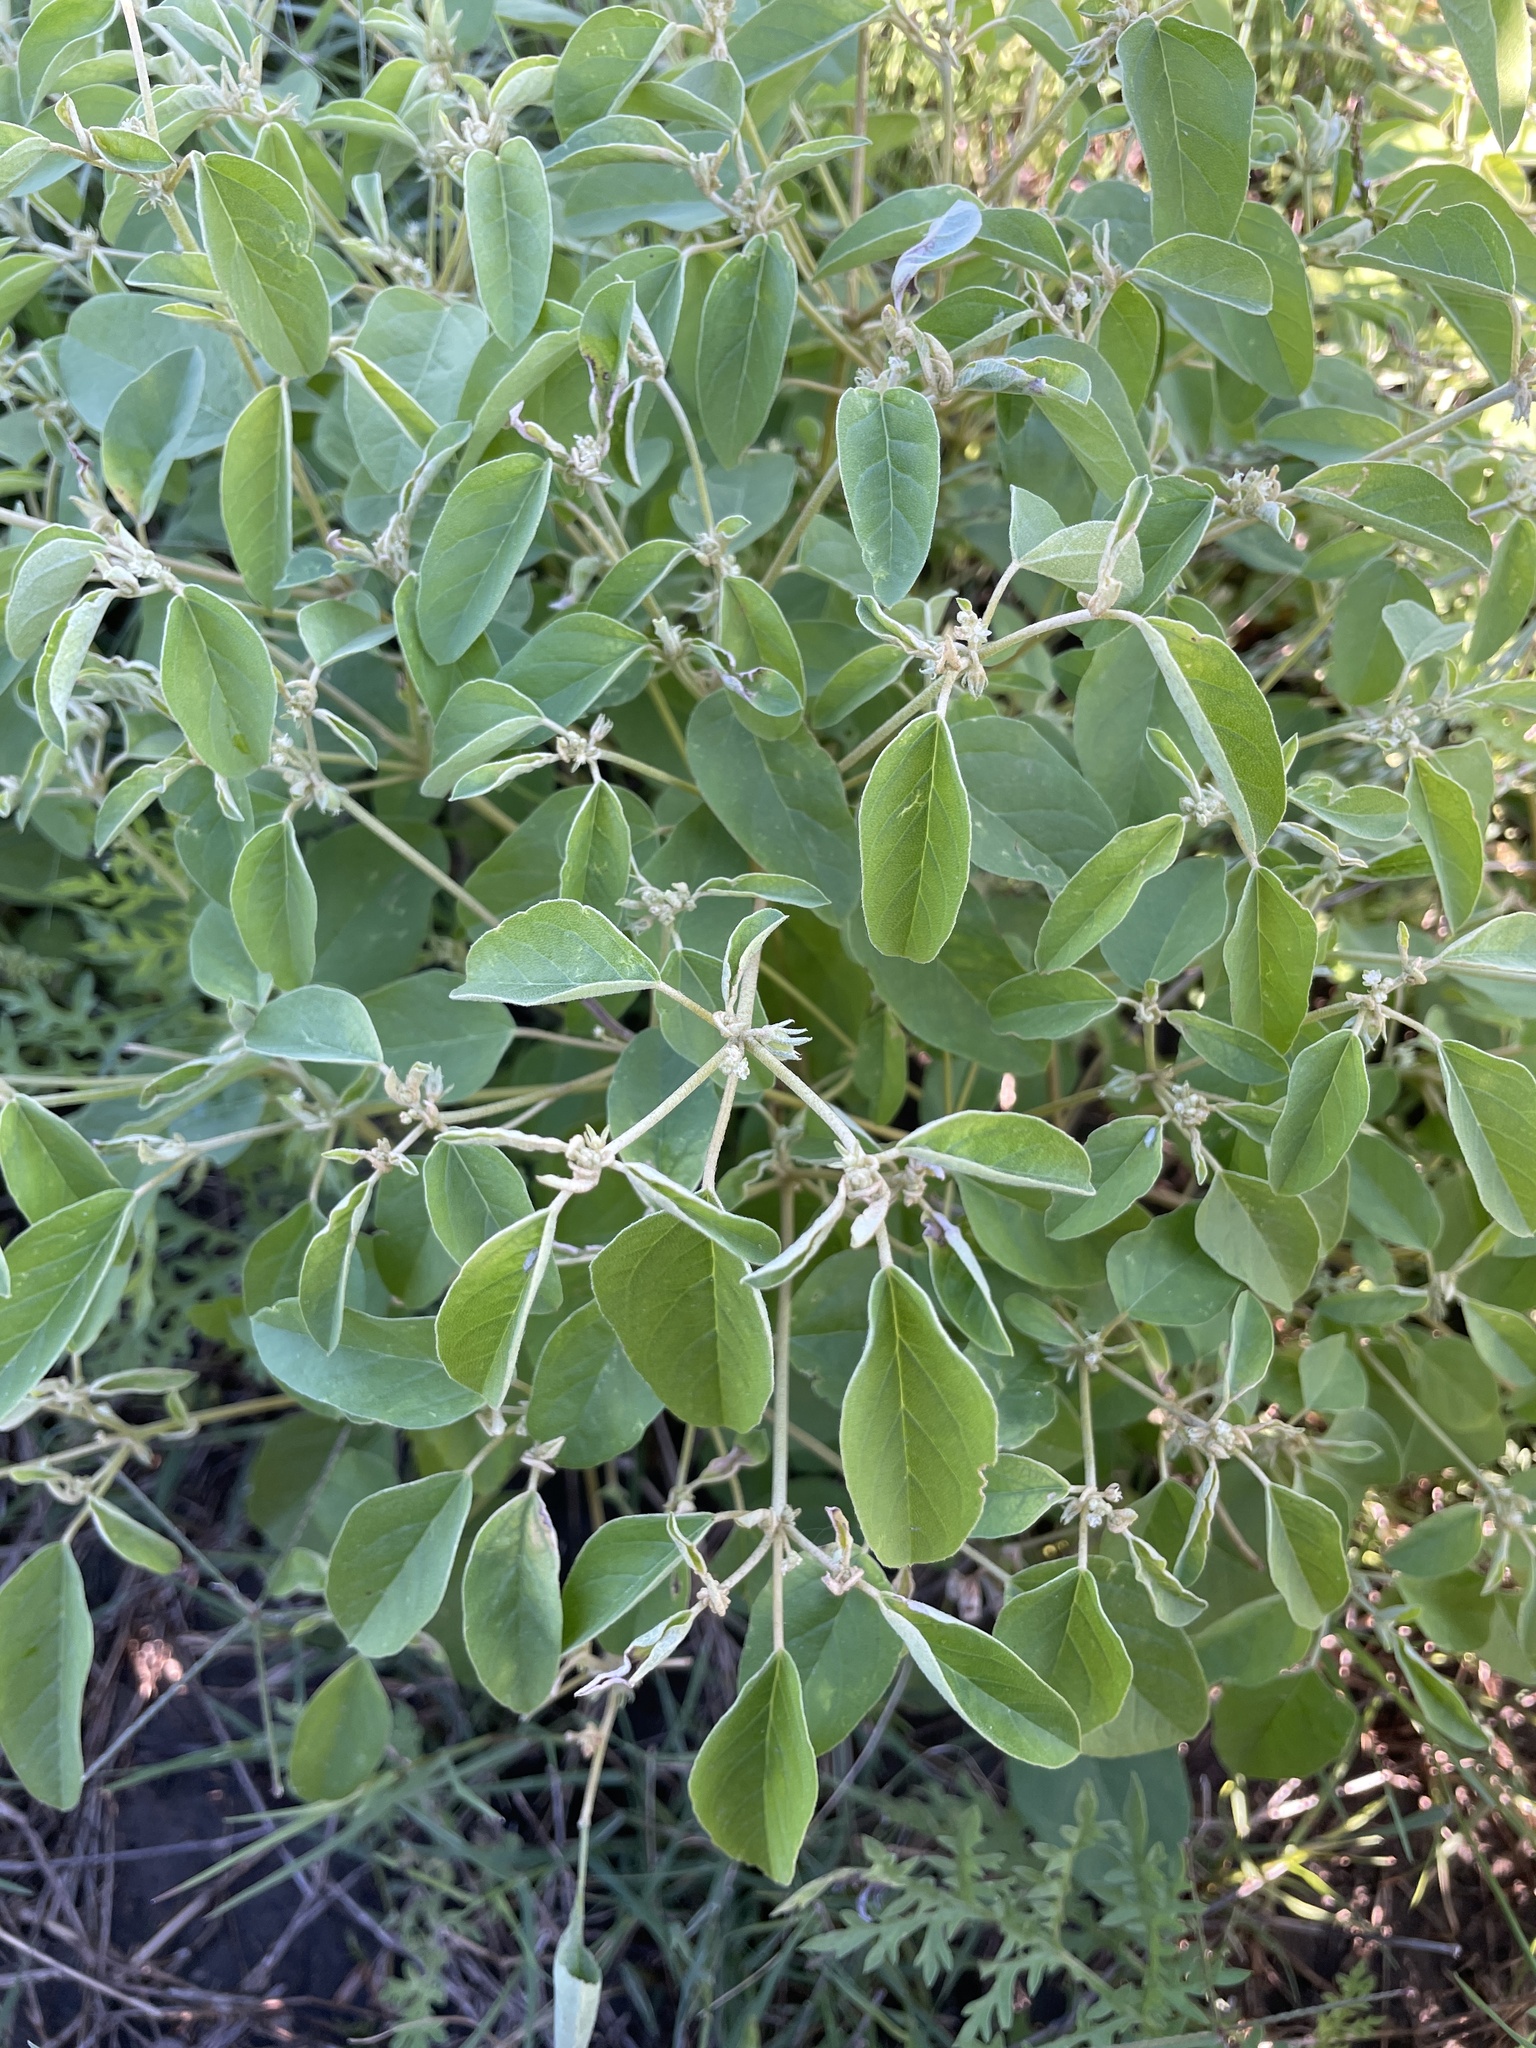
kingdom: Plantae
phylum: Tracheophyta
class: Magnoliopsida
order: Malpighiales
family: Euphorbiaceae
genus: Croton
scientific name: Croton monanthogynus
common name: One-seed croton
